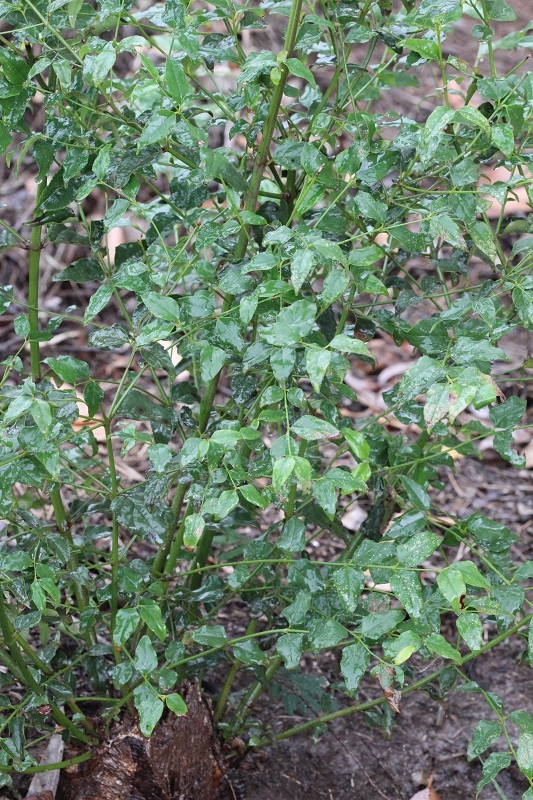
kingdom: Plantae
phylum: Tracheophyta
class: Magnoliopsida
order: Lamiales
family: Stilbaceae
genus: Halleria
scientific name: Halleria lucida
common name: Tree fuschia
